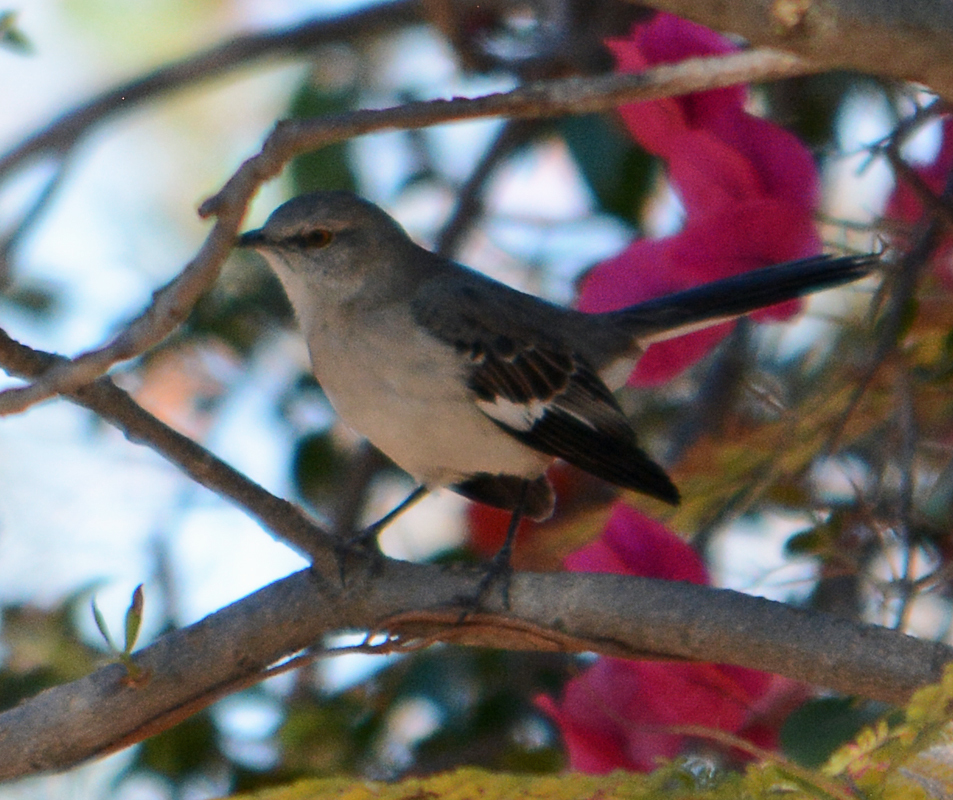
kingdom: Animalia
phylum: Chordata
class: Aves
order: Passeriformes
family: Mimidae
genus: Mimus
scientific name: Mimus polyglottos
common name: Northern mockingbird
